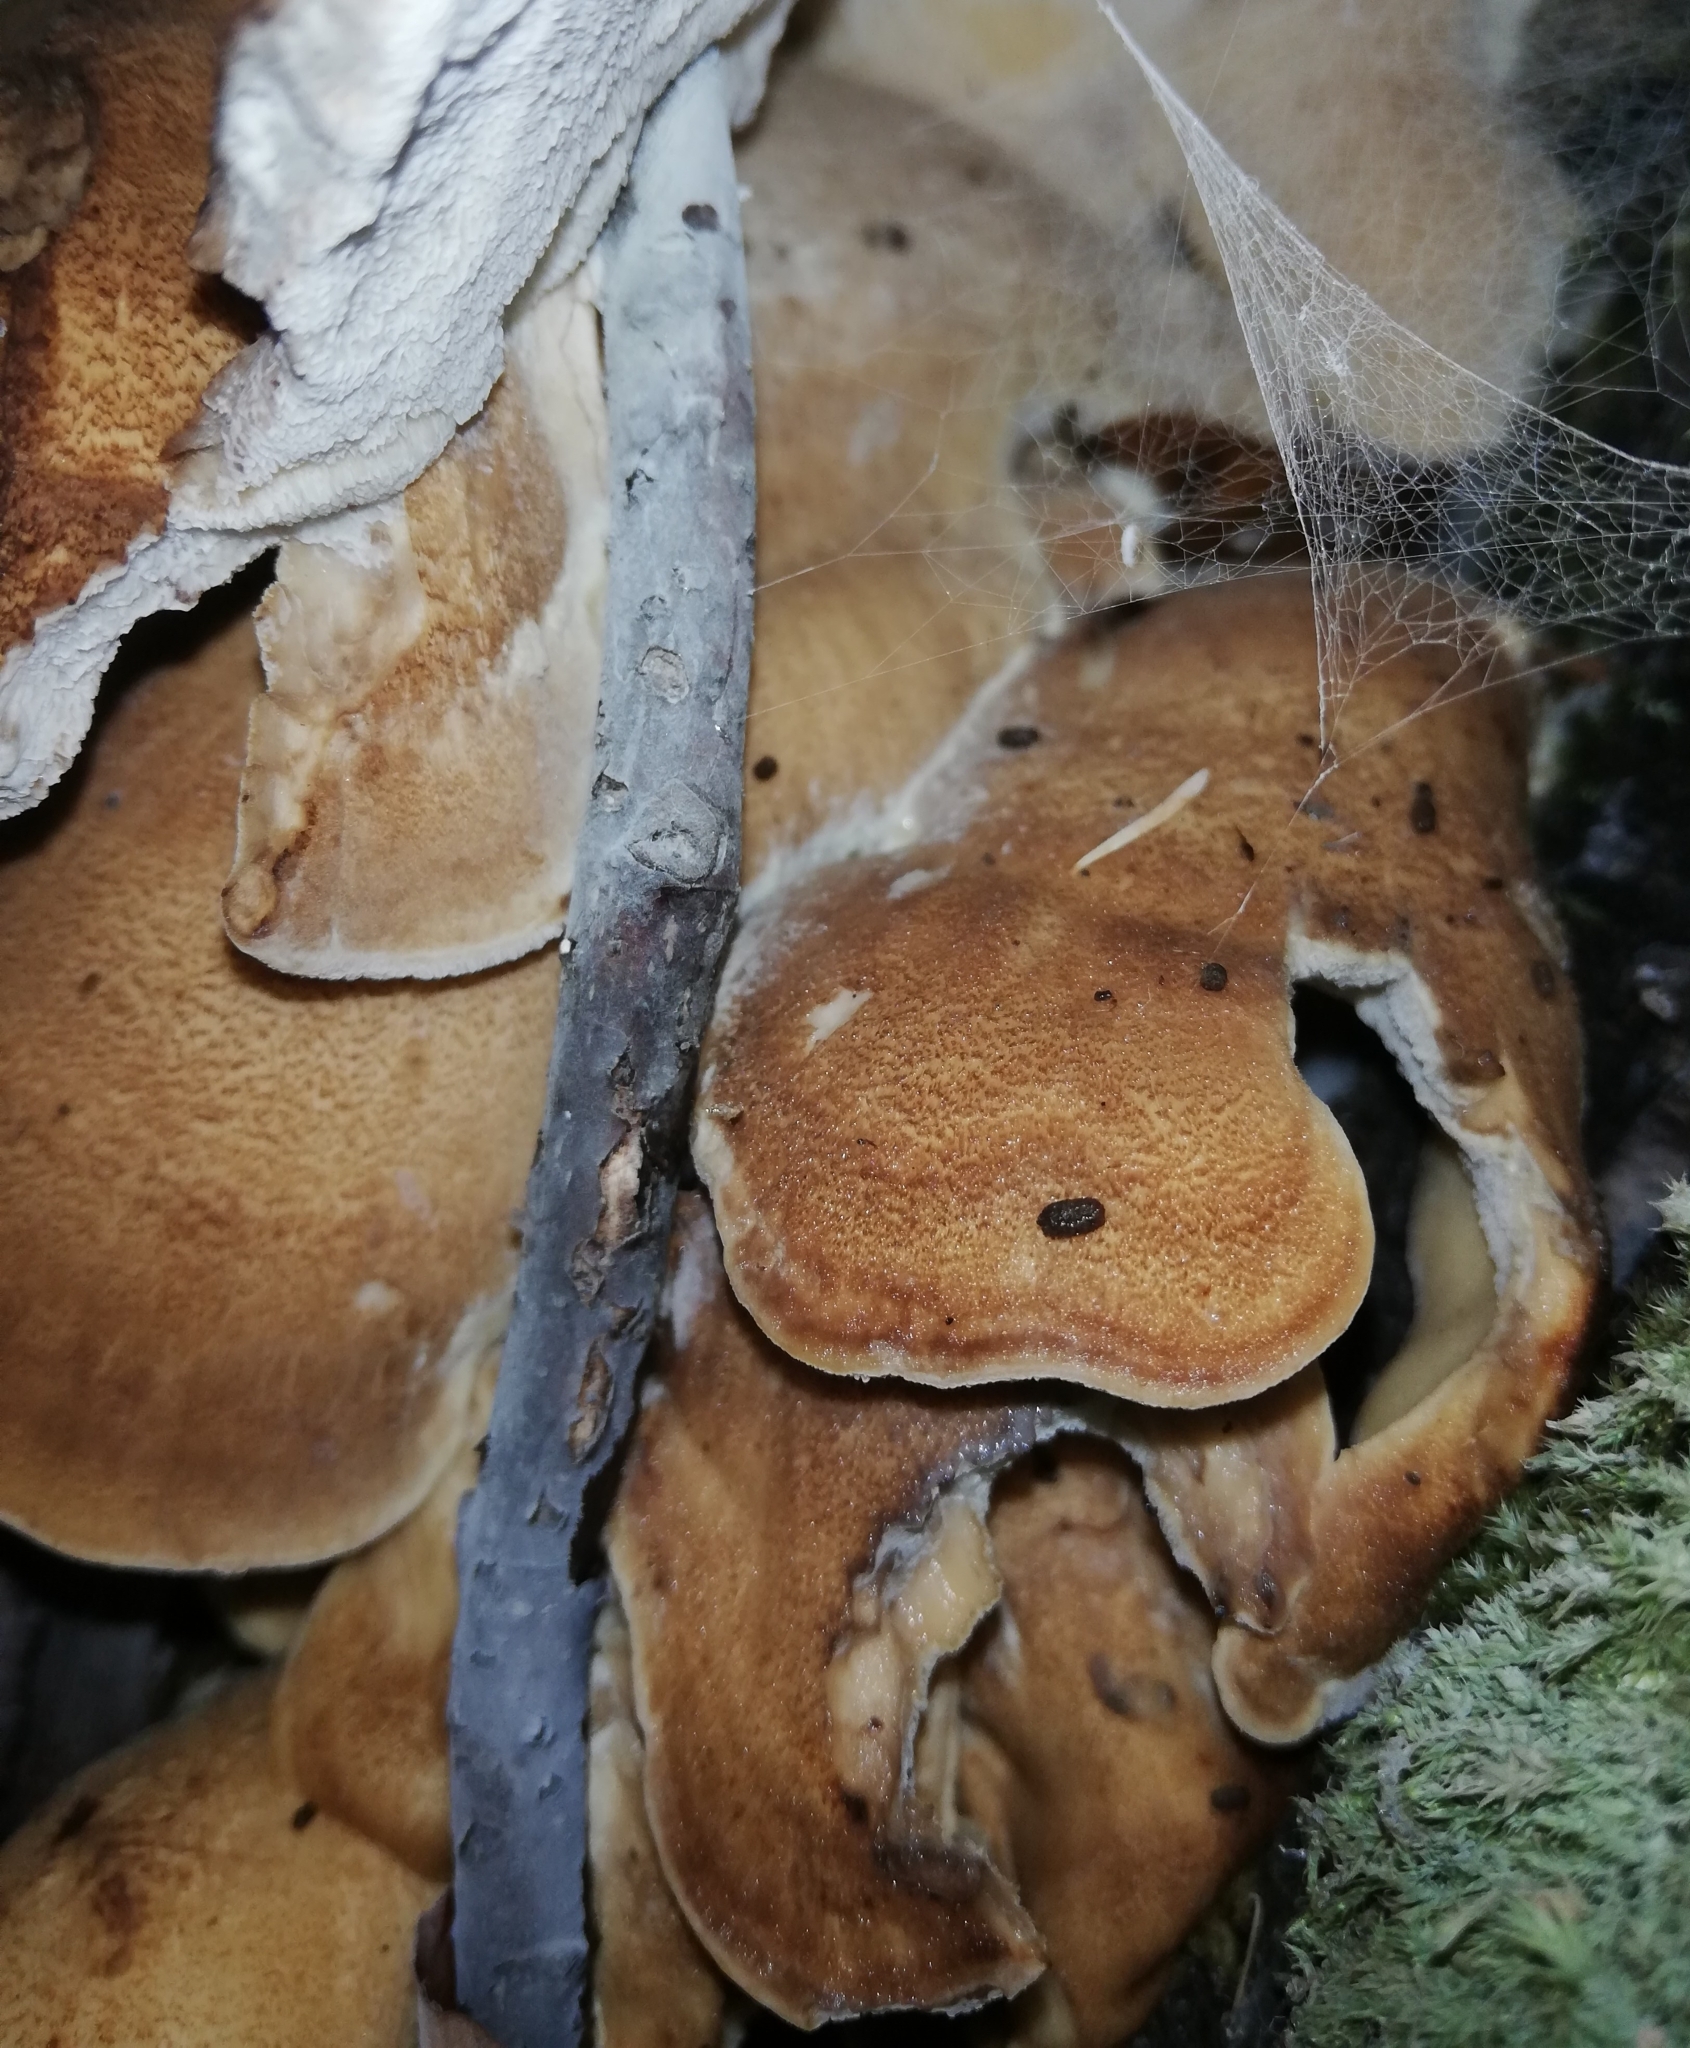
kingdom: Fungi
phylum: Basidiomycota
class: Agaricomycetes
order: Polyporales
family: Meripilaceae
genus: Meripilus
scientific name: Meripilus giganteus
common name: Giant polypore
